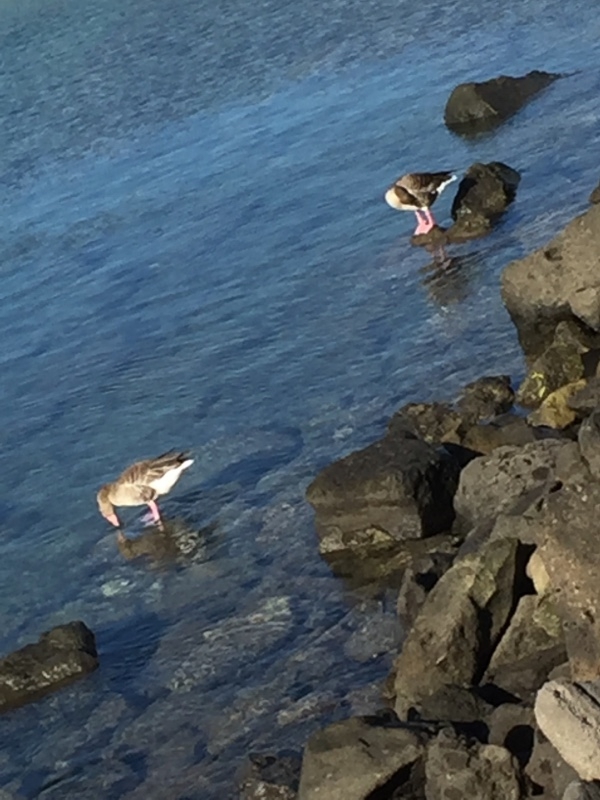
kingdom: Animalia
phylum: Chordata
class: Aves
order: Anseriformes
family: Anatidae
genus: Anser
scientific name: Anser anser
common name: Greylag goose
